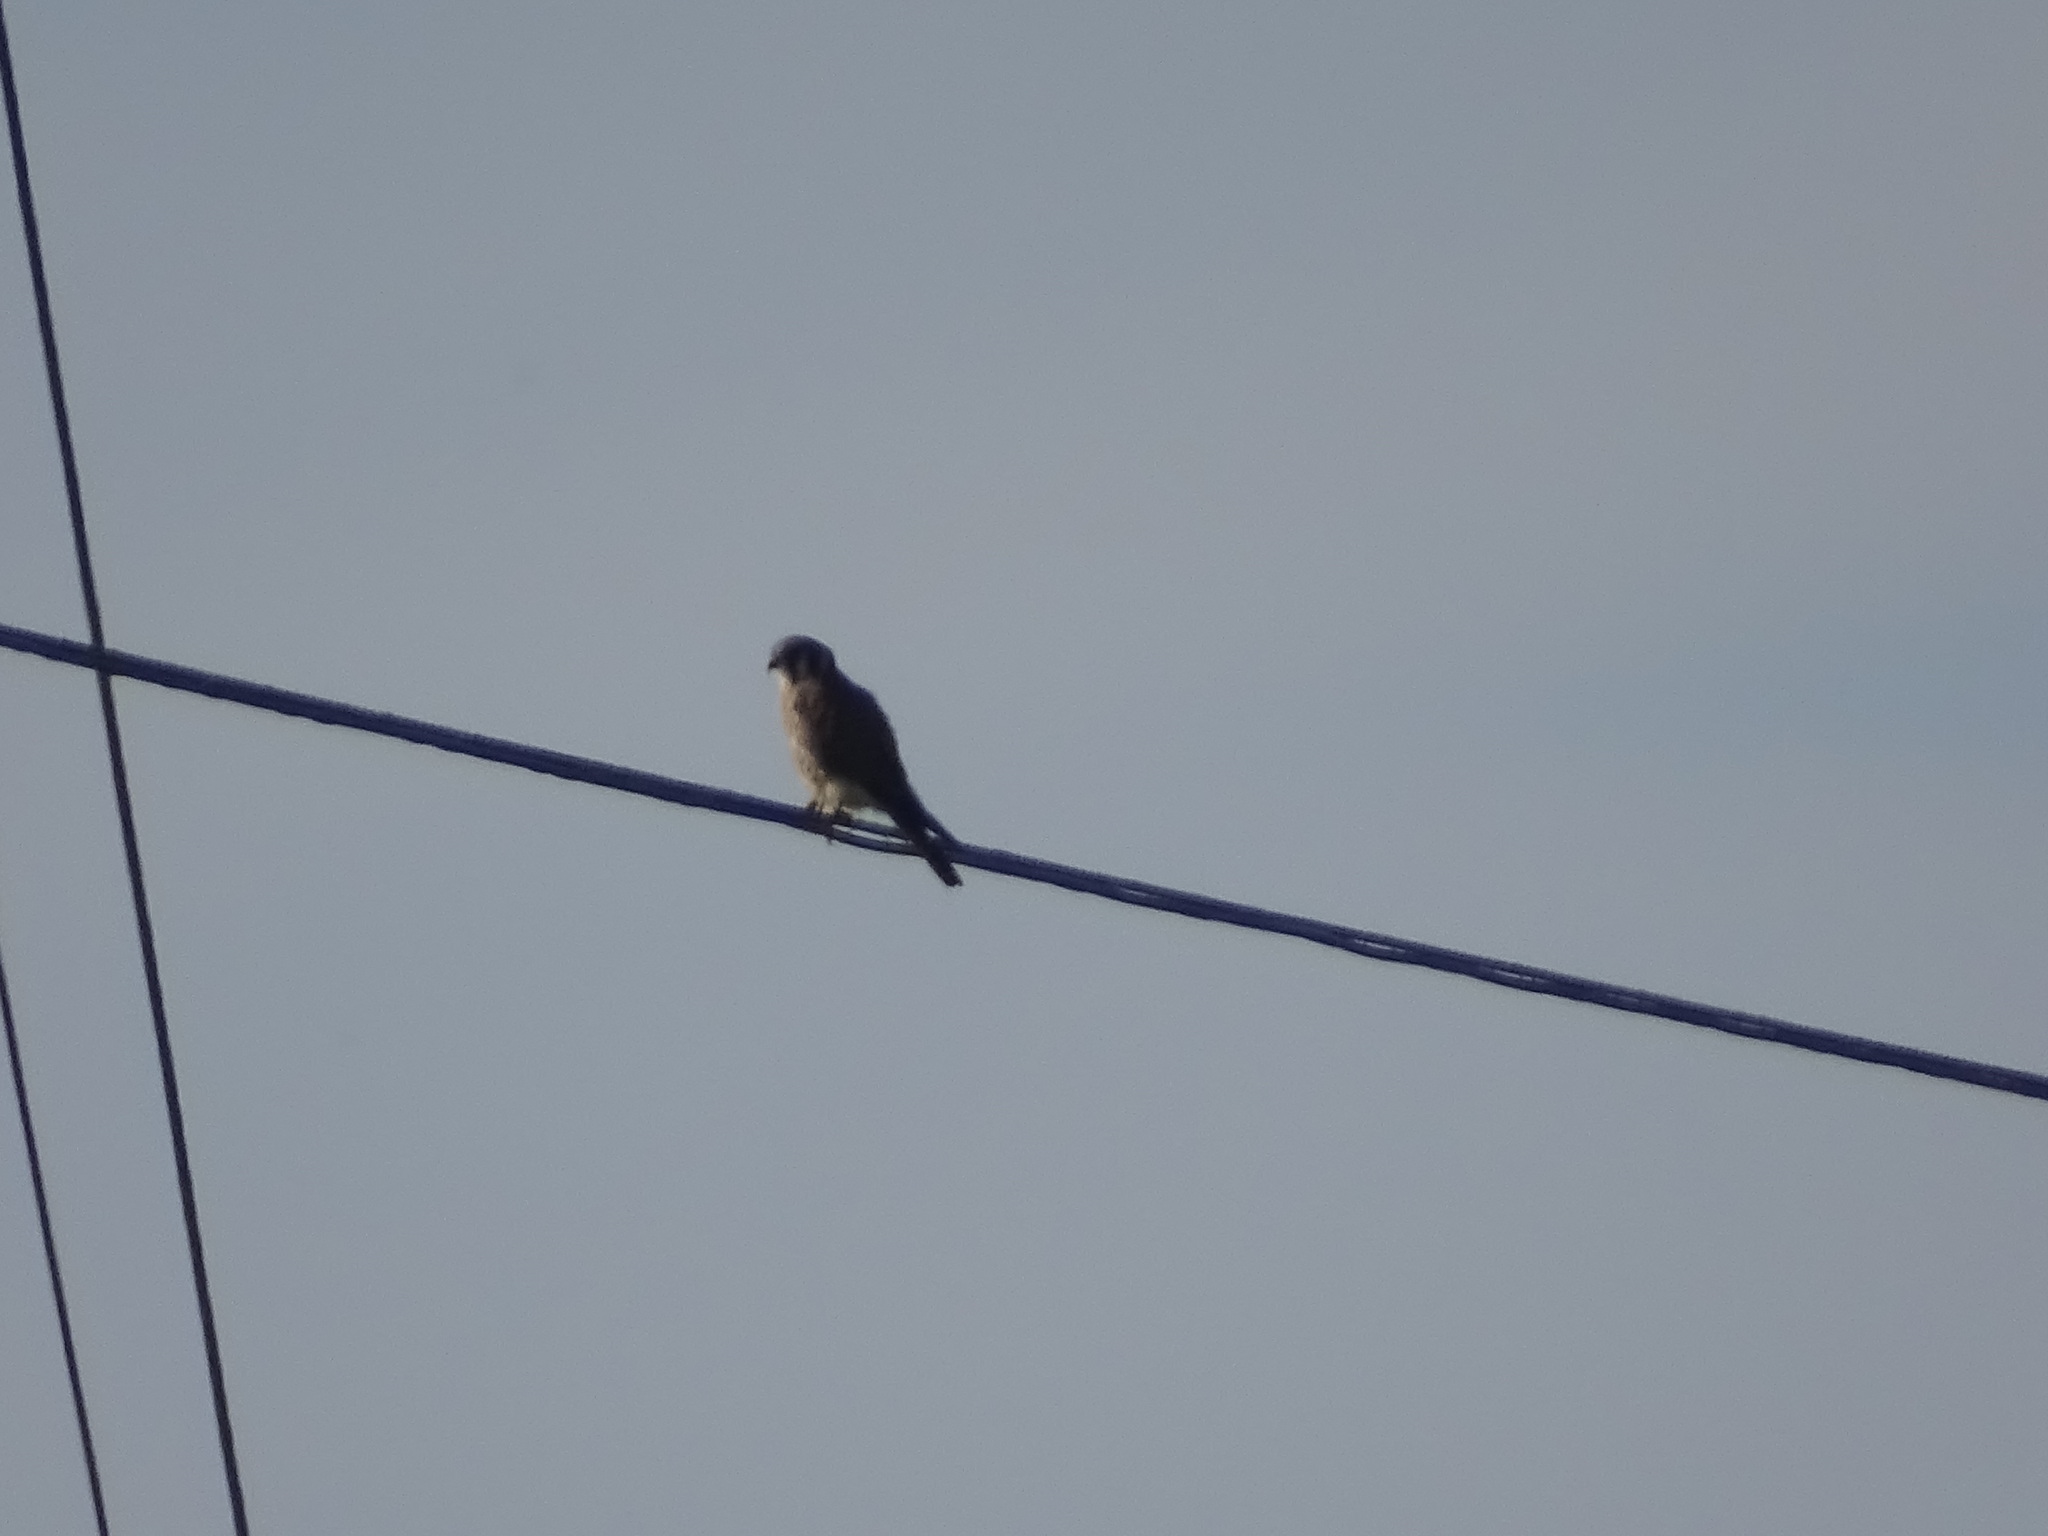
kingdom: Animalia
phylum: Chordata
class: Aves
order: Falconiformes
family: Falconidae
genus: Falco
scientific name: Falco sparverius
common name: American kestrel
